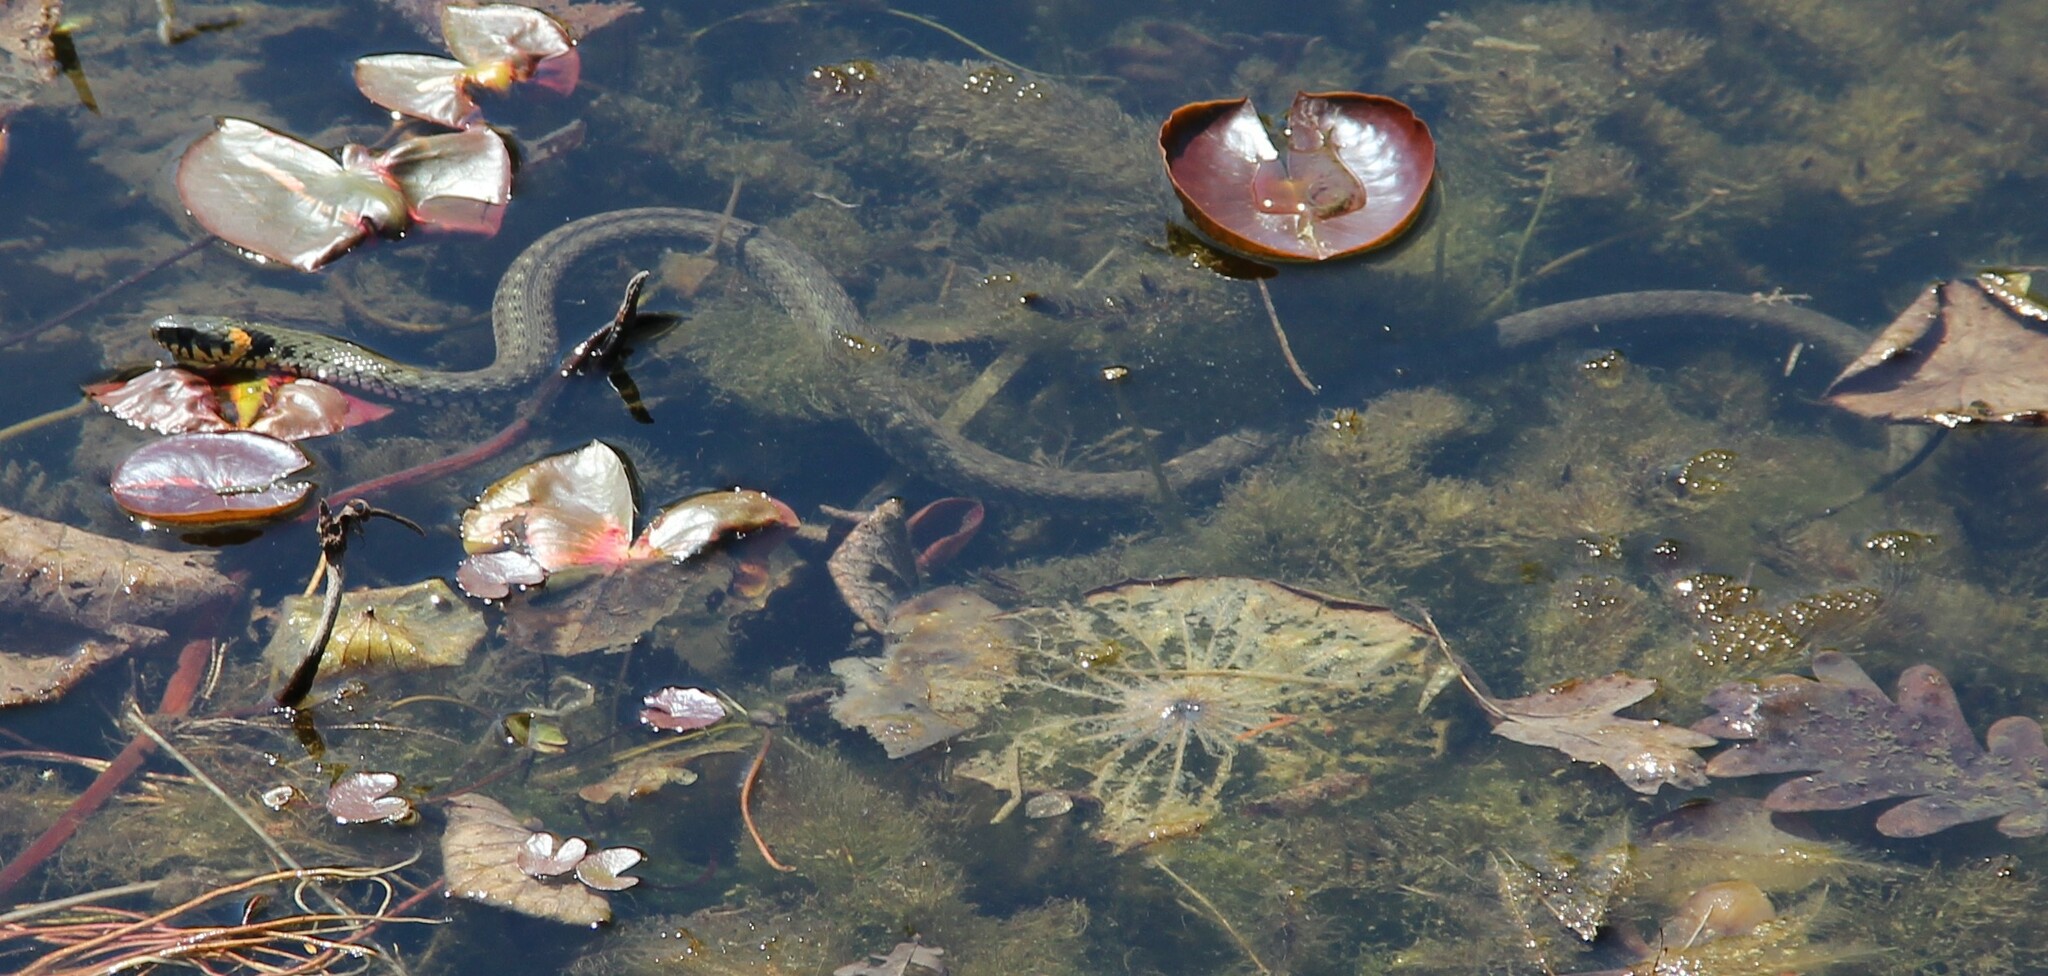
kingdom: Animalia
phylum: Chordata
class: Squamata
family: Colubridae
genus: Natrix
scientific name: Natrix natrix
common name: Grass snake
